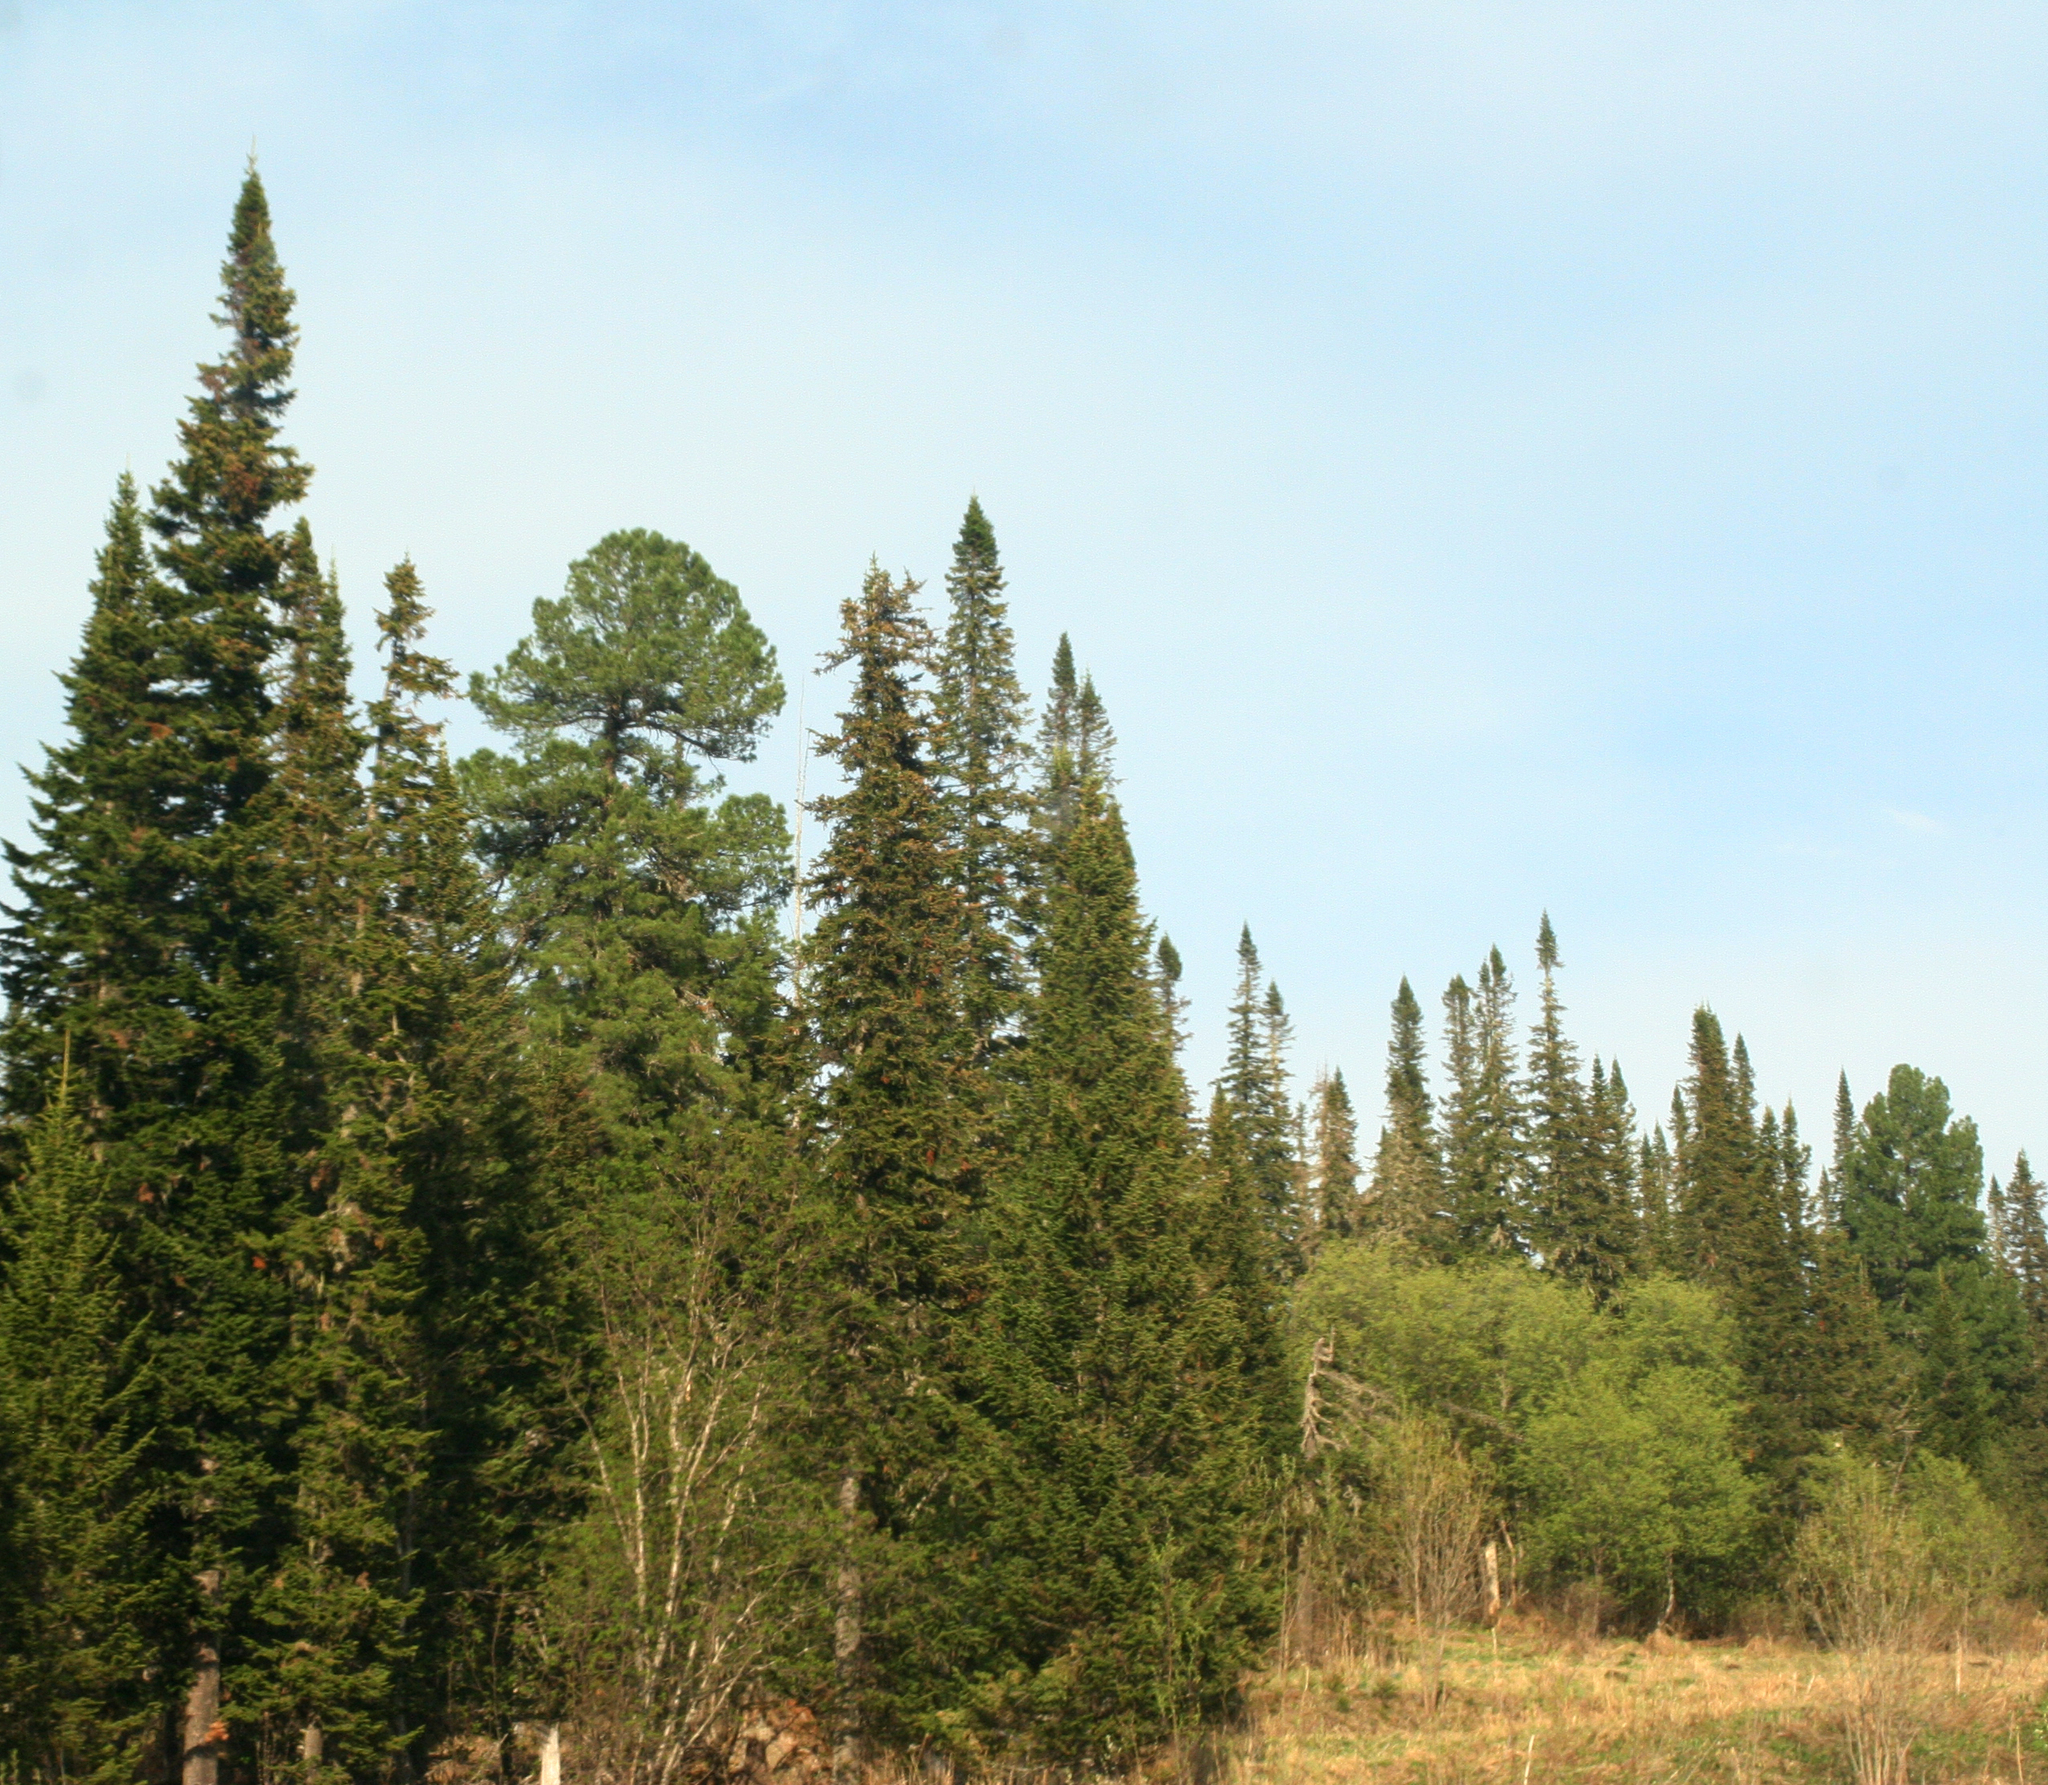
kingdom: Plantae
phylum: Tracheophyta
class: Pinopsida
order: Pinales
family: Pinaceae
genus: Abies
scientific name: Abies sibirica
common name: Siberian fir
